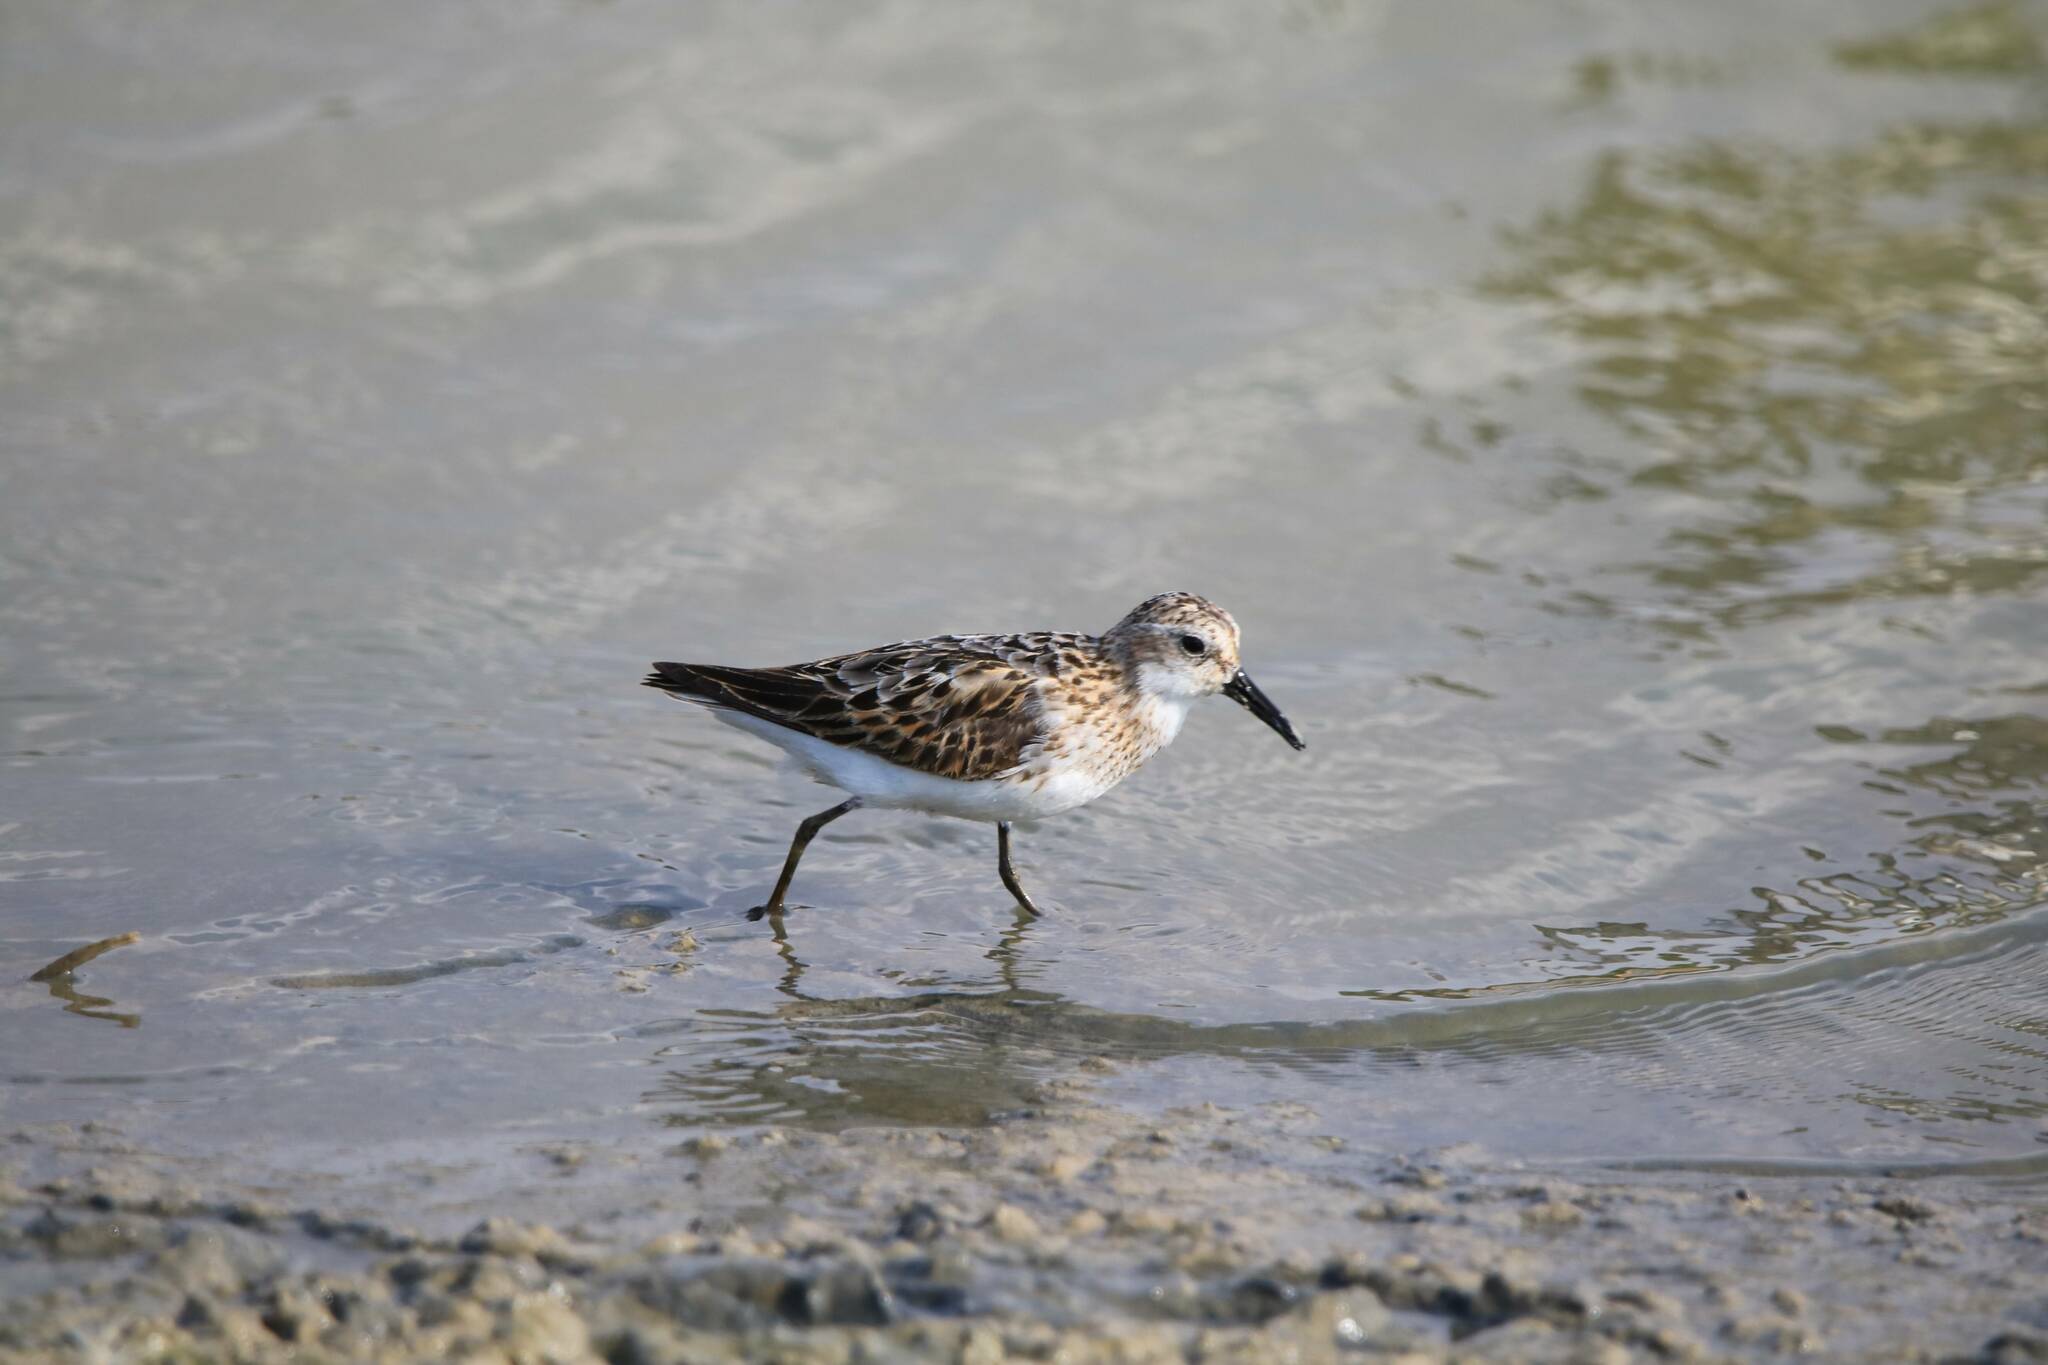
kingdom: Animalia
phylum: Chordata
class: Aves
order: Charadriiformes
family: Scolopacidae
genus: Calidris
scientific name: Calidris minuta
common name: Little stint
